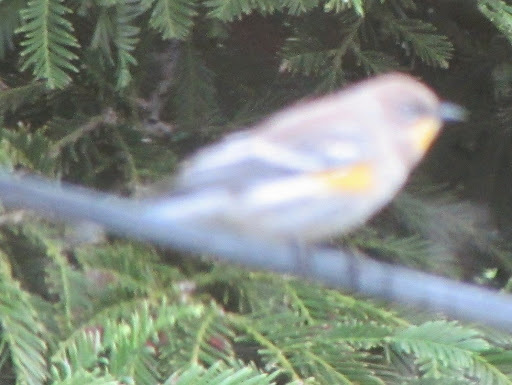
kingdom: Animalia
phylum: Chordata
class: Aves
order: Passeriformes
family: Parulidae
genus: Setophaga
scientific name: Setophaga coronata
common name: Myrtle warbler
